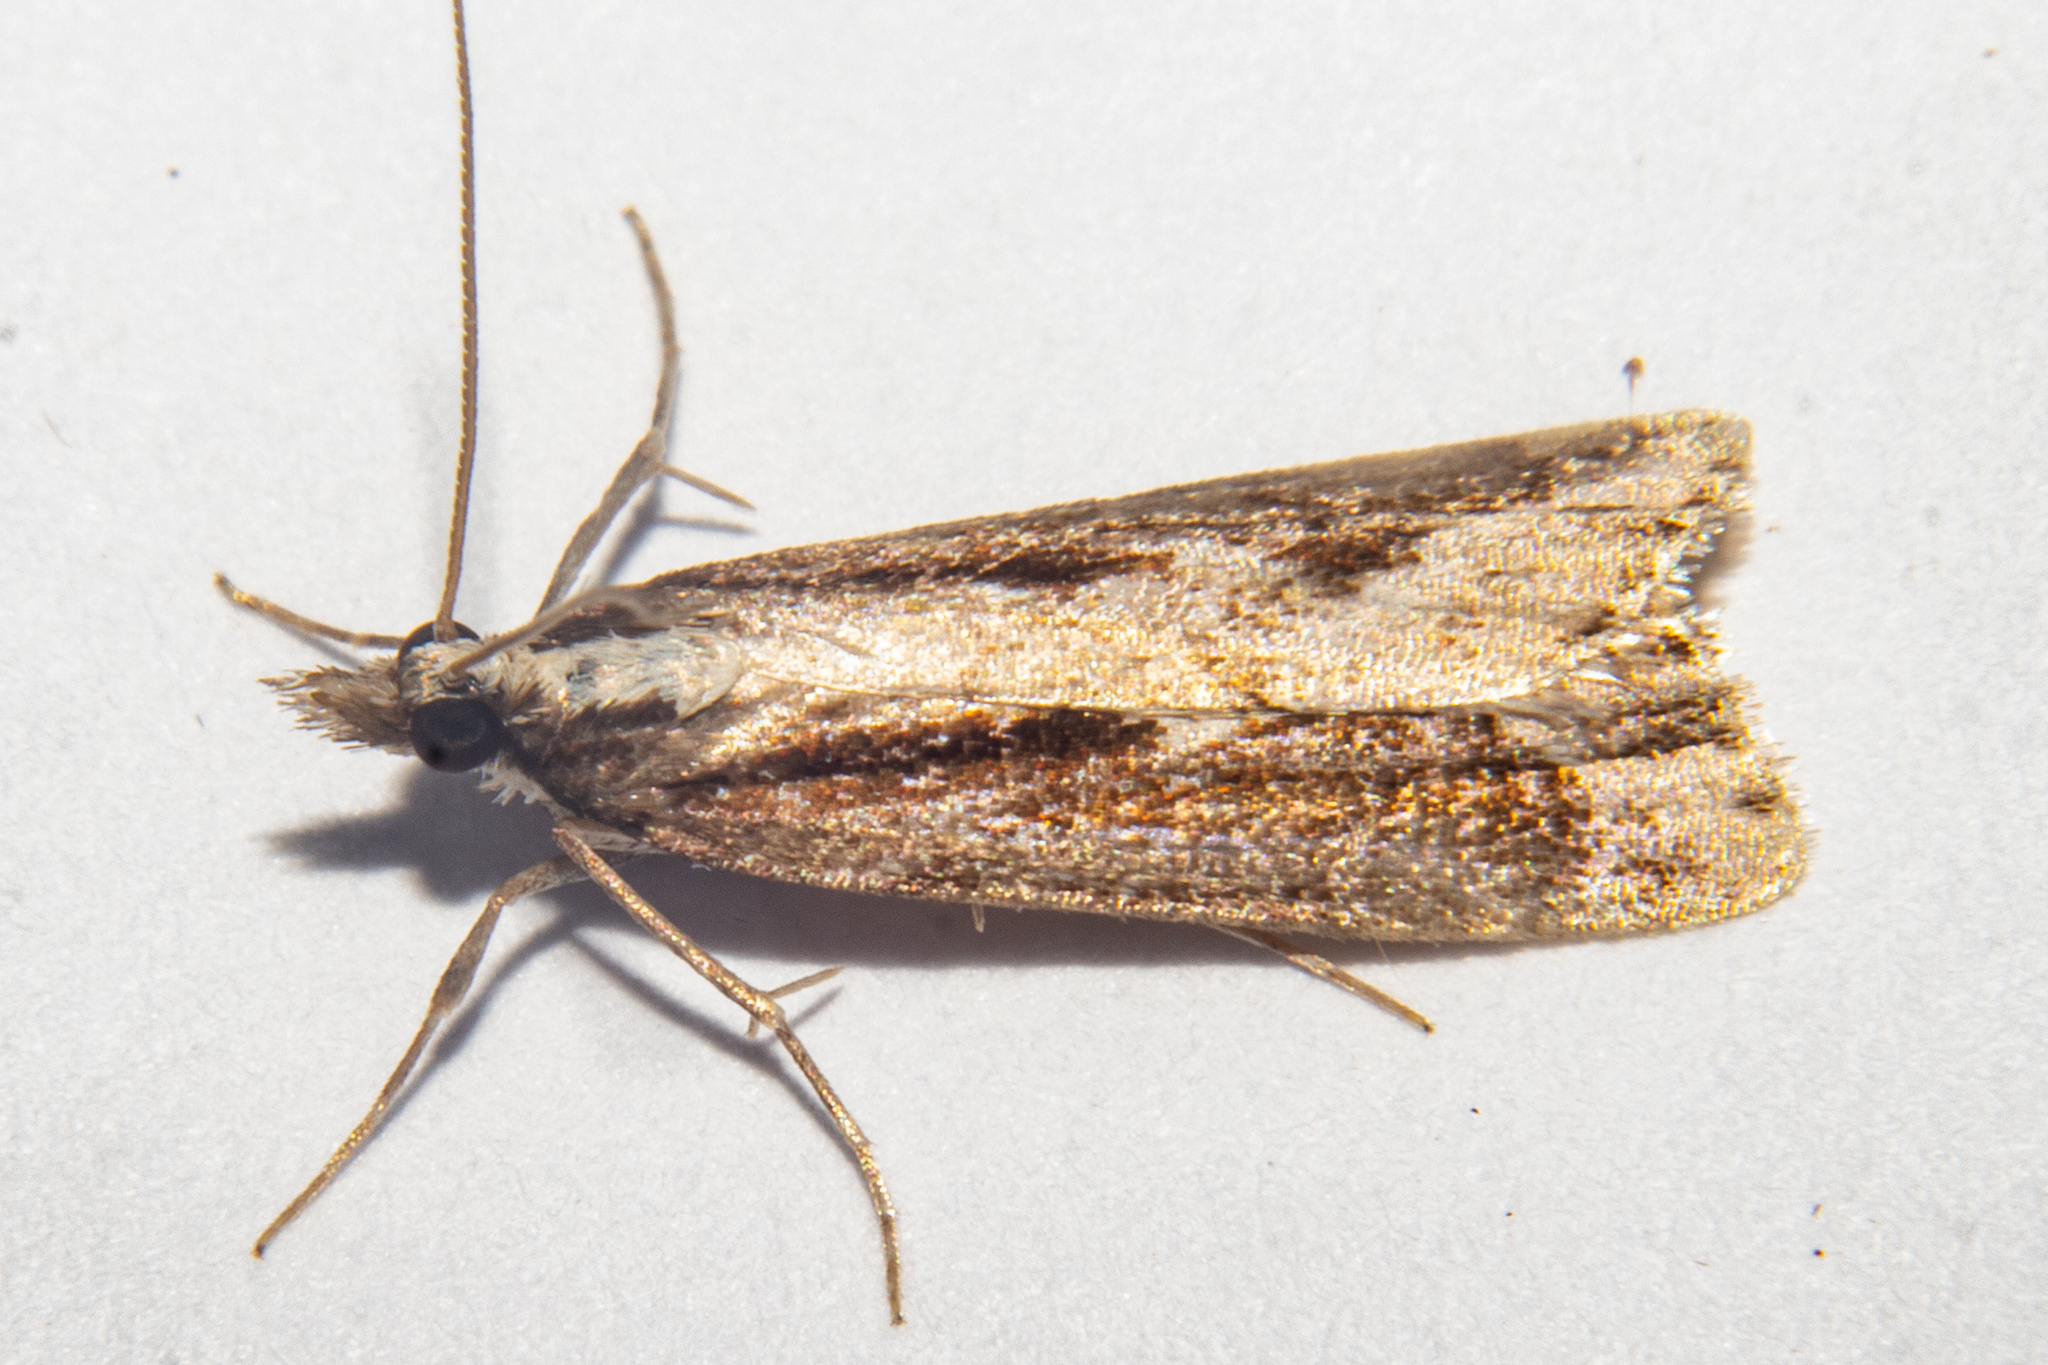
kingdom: Animalia
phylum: Arthropoda
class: Insecta
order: Lepidoptera
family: Crambidae
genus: Eudonia
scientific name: Eudonia steropaea
